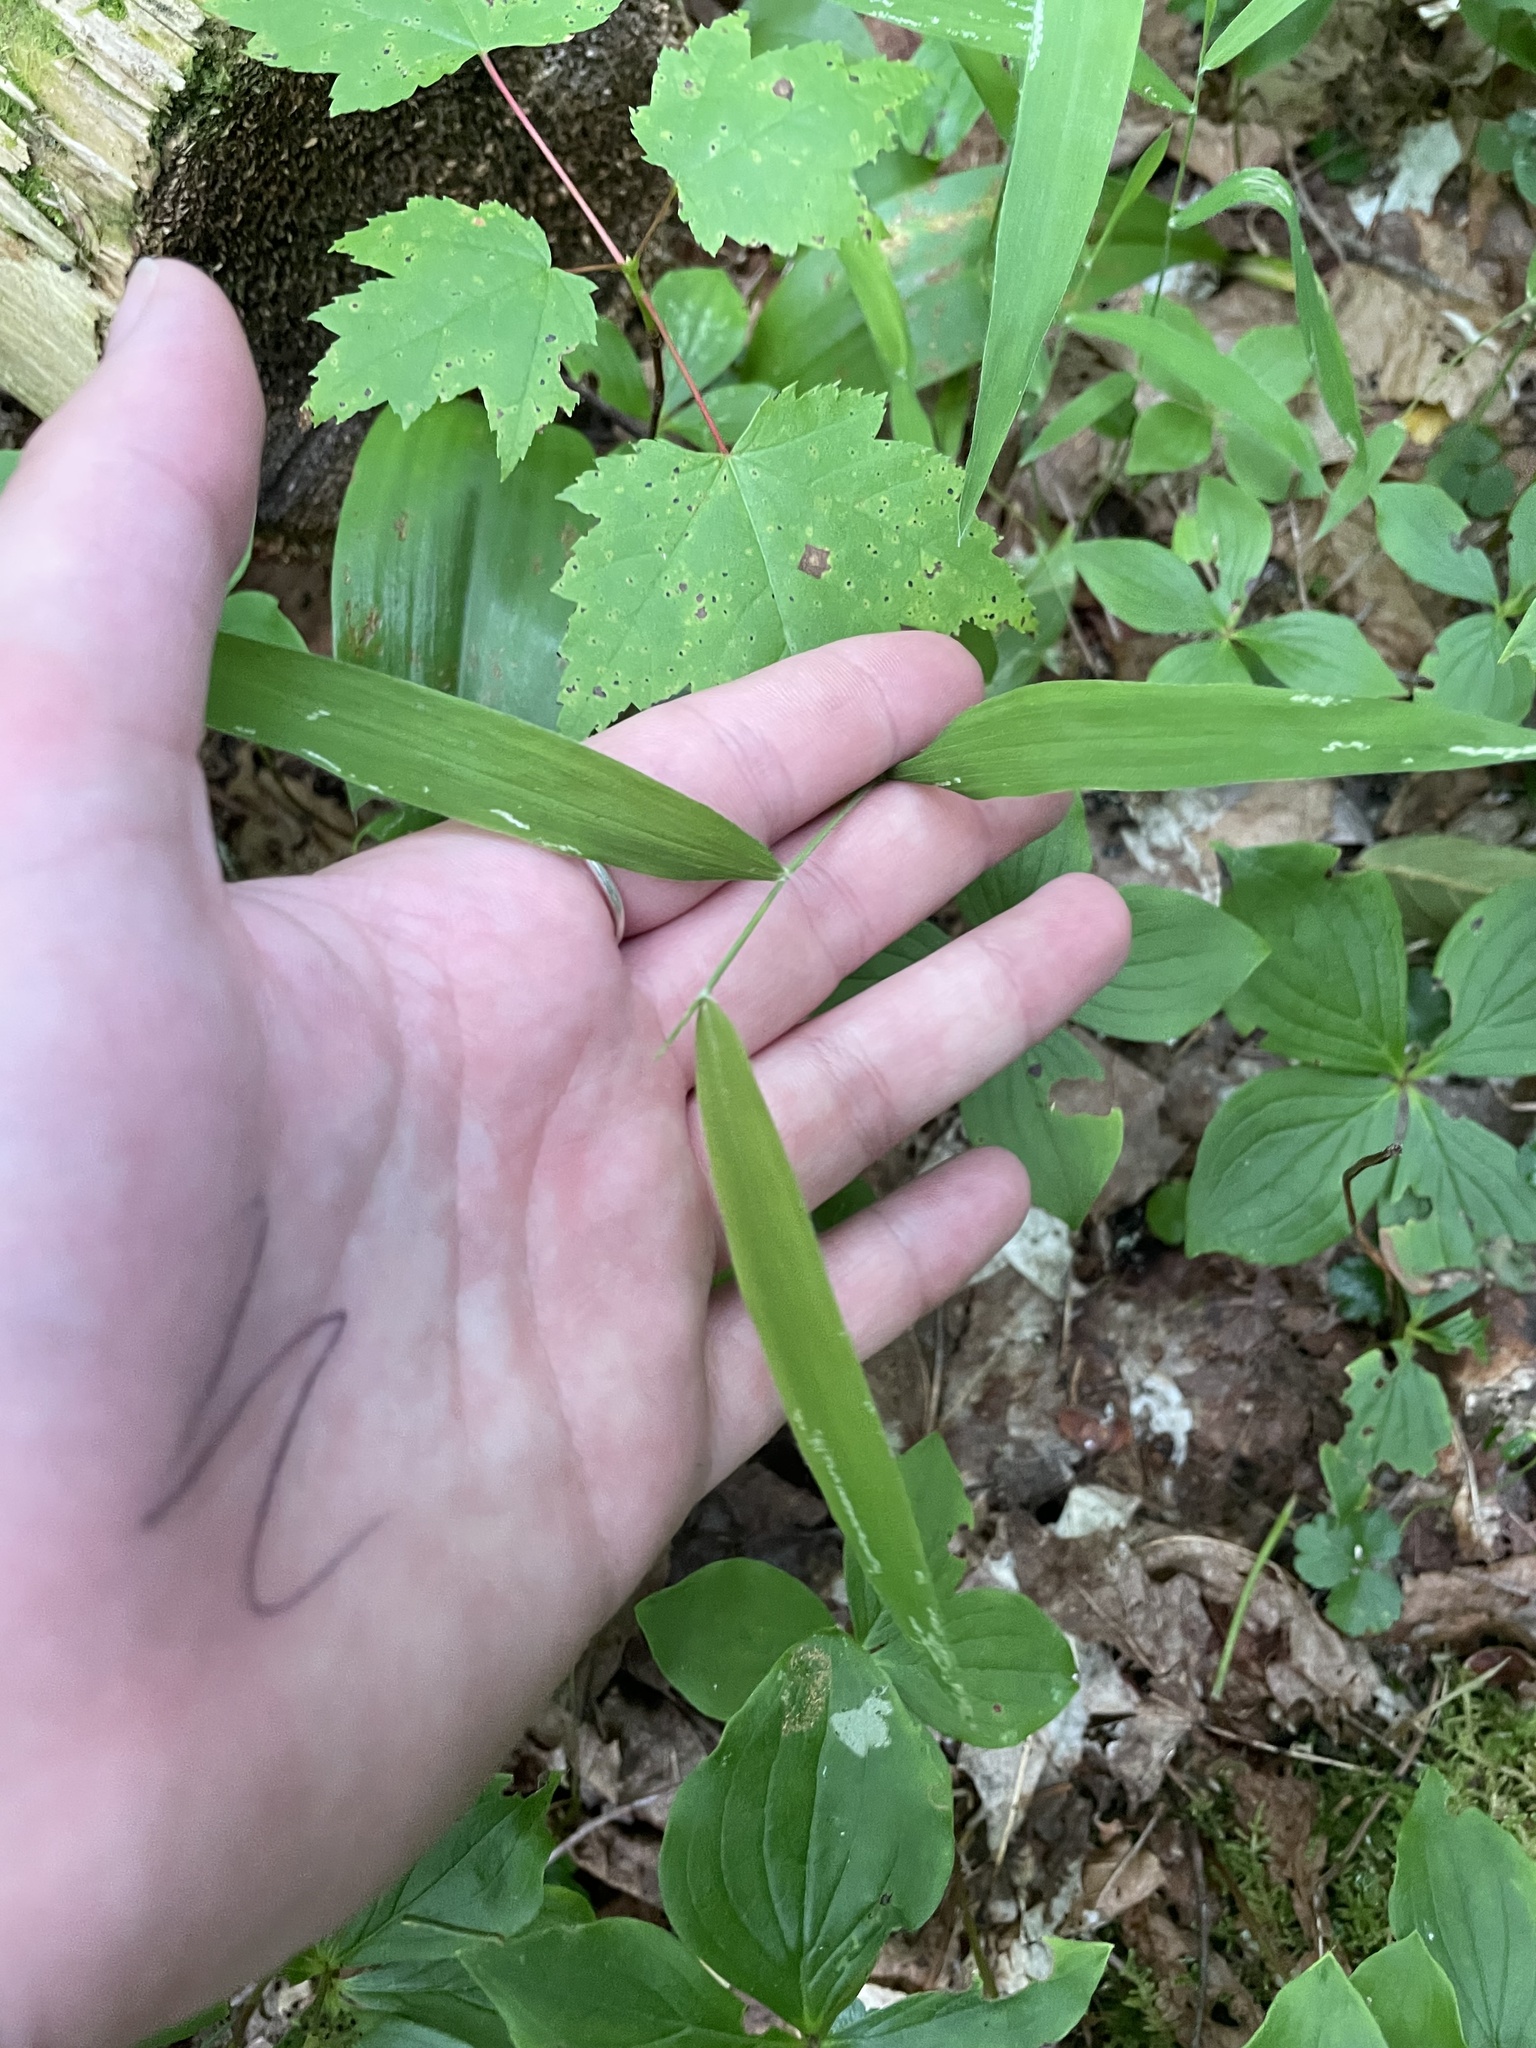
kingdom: Plantae
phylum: Tracheophyta
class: Liliopsida
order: Poales
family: Poaceae
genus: Brachyelytrum
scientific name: Brachyelytrum aristosum
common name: Northern shorthusk
